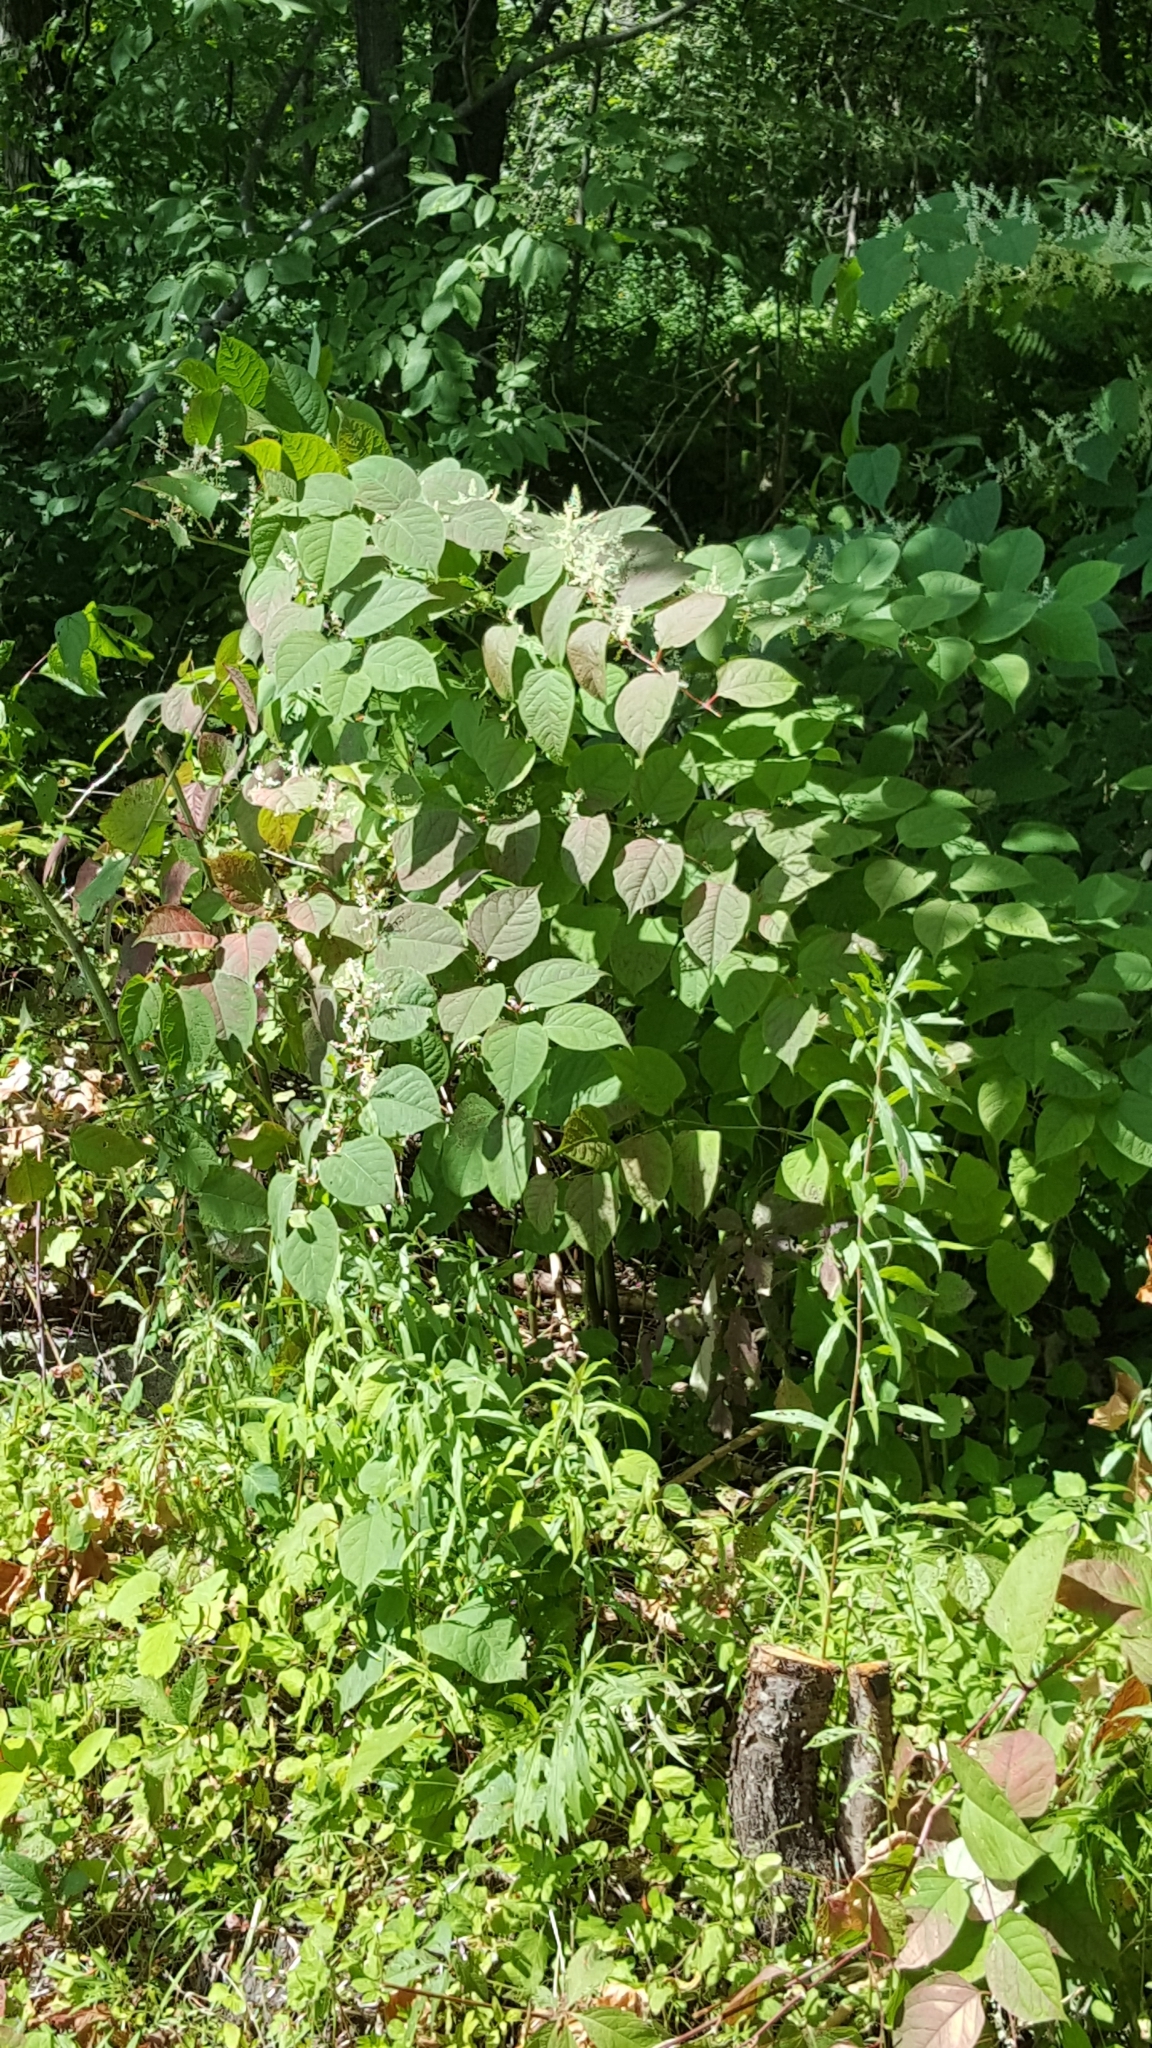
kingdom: Plantae
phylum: Tracheophyta
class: Magnoliopsida
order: Caryophyllales
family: Polygonaceae
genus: Reynoutria
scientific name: Reynoutria japonica
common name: Japanese knotweed
